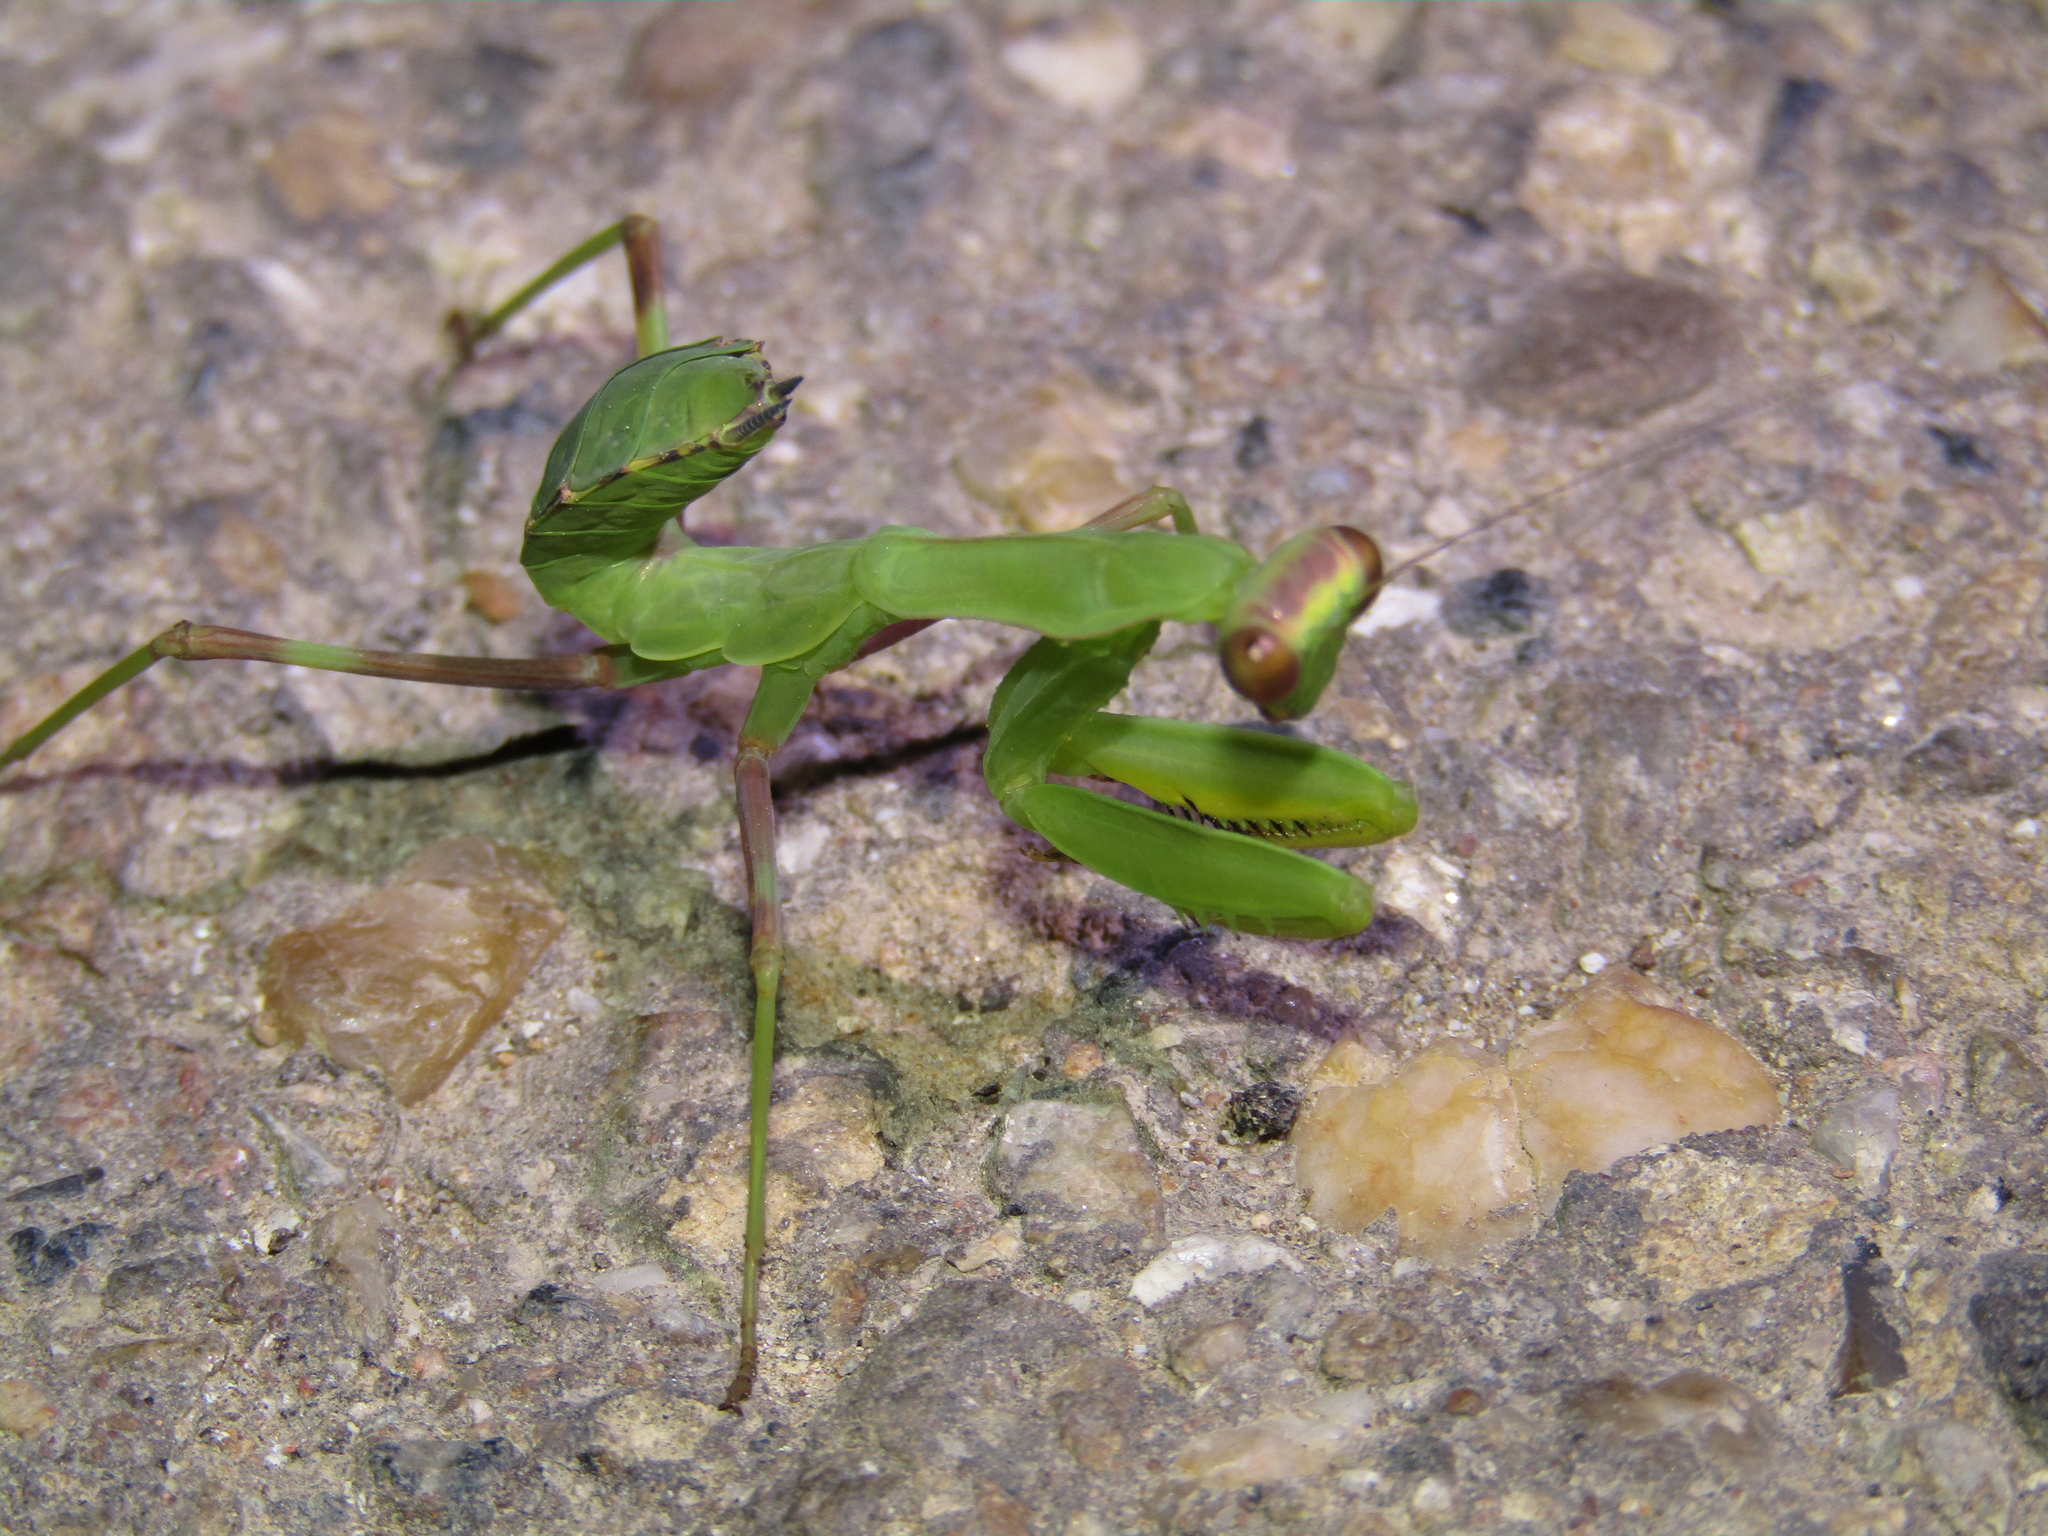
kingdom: Animalia
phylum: Arthropoda
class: Insecta
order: Mantodea
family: Mantidae
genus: Hierodula
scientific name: Hierodula transcaucasica
